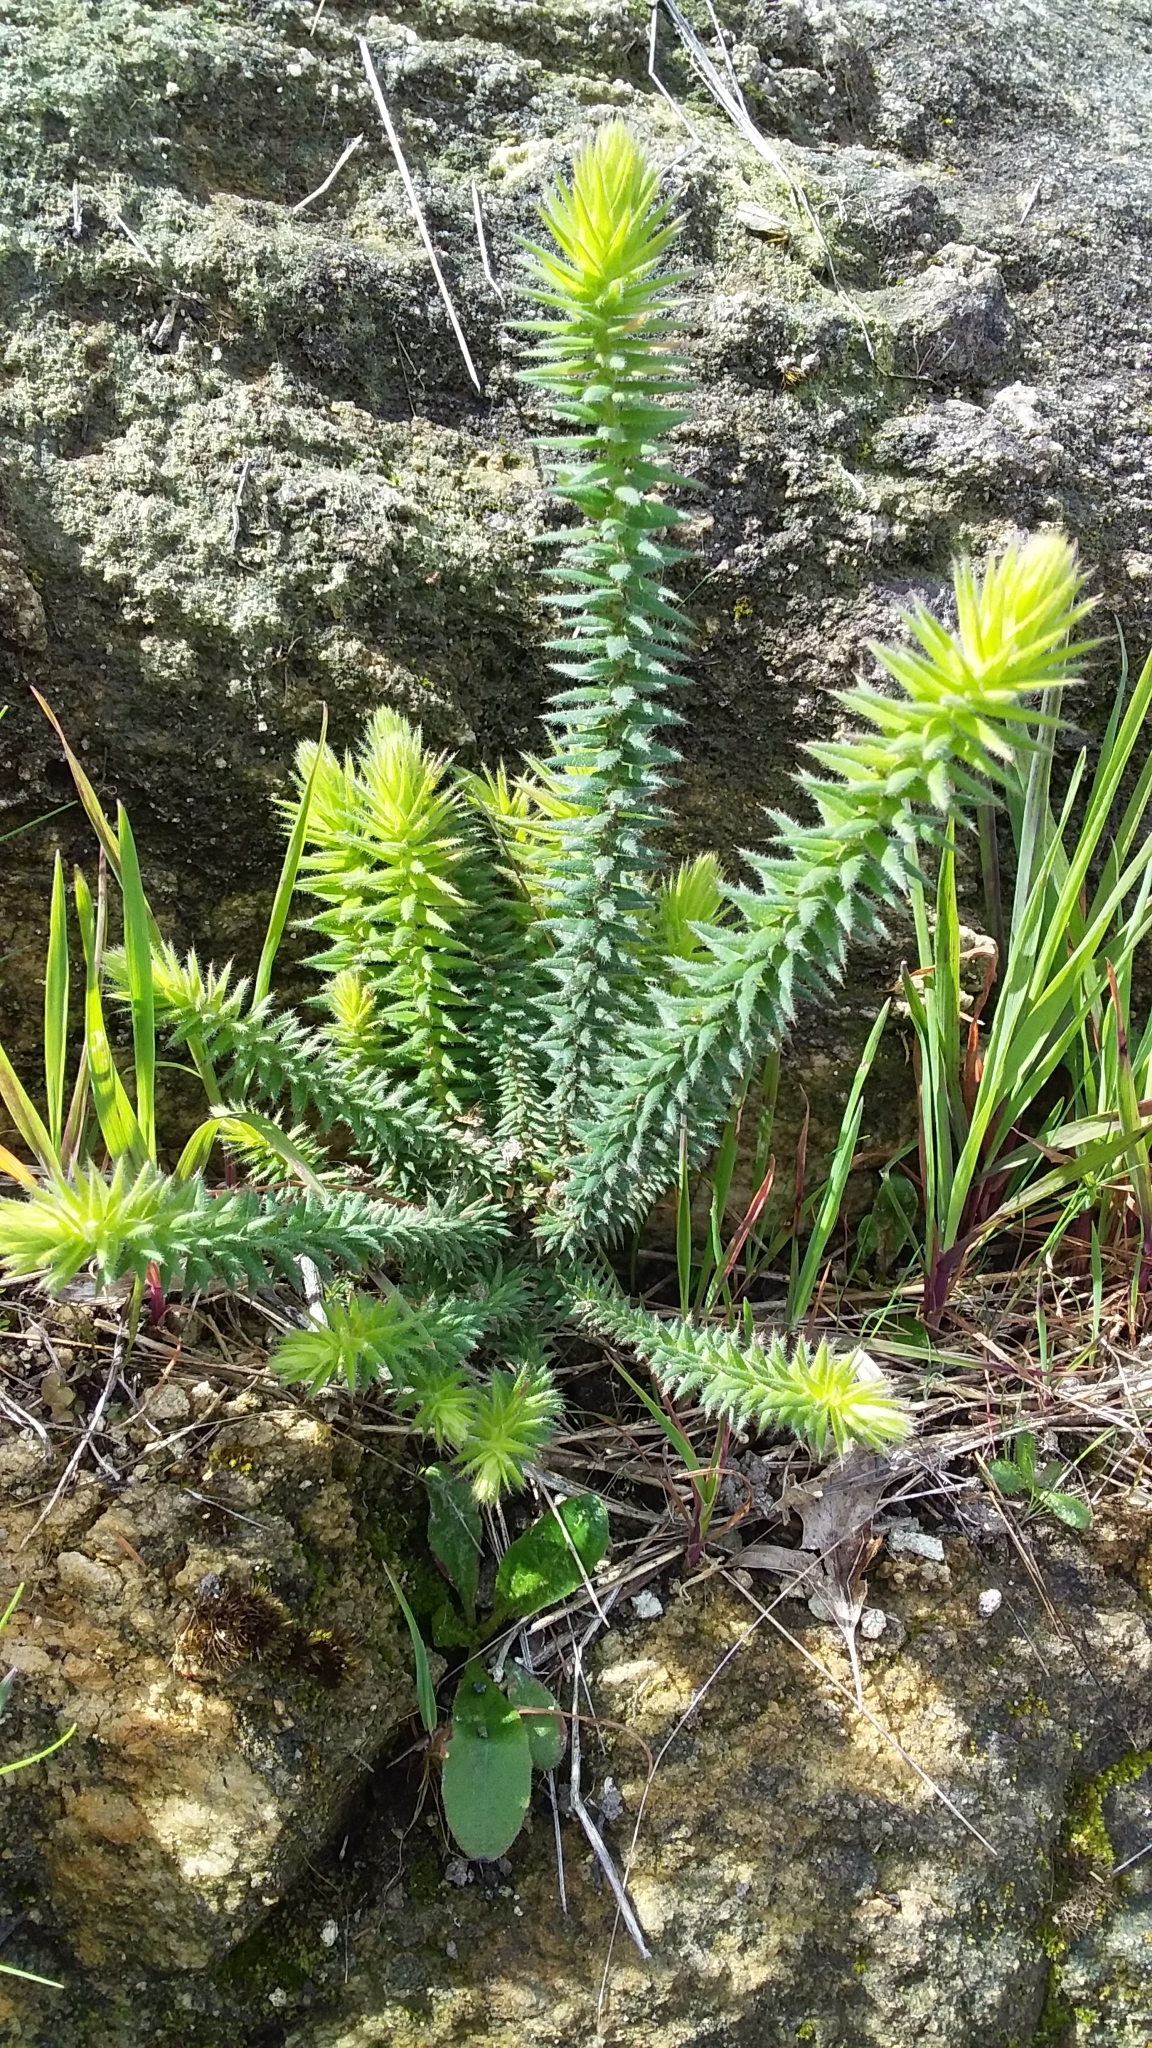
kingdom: Plantae
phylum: Tracheophyta
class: Magnoliopsida
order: Ericales
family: Ericaceae
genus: Acrotriche
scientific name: Acrotriche fasciculiflora
